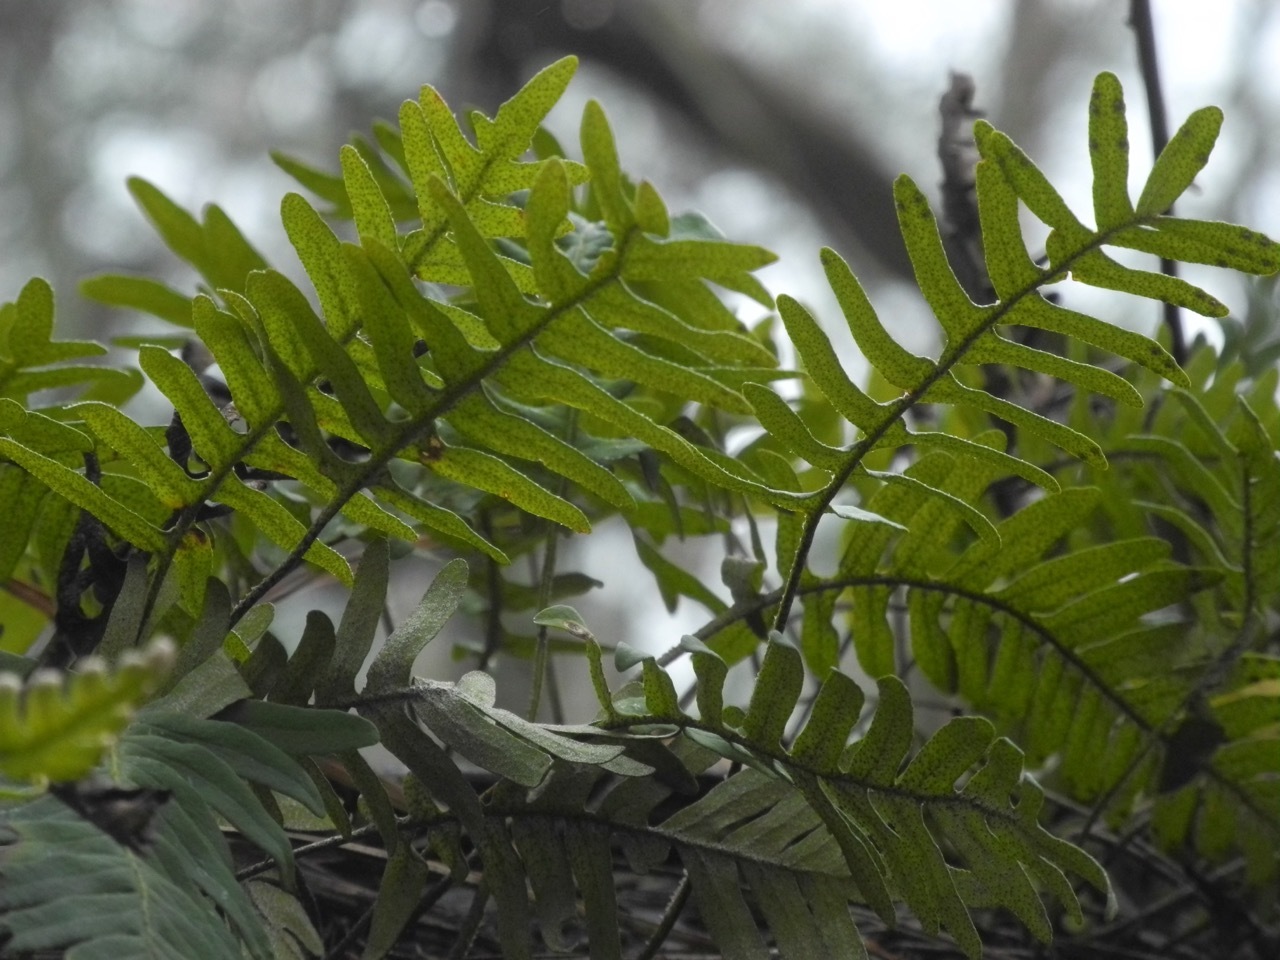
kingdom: Plantae
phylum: Tracheophyta
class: Polypodiopsida
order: Polypodiales
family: Polypodiaceae
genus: Pleopeltis
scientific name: Pleopeltis michauxiana
